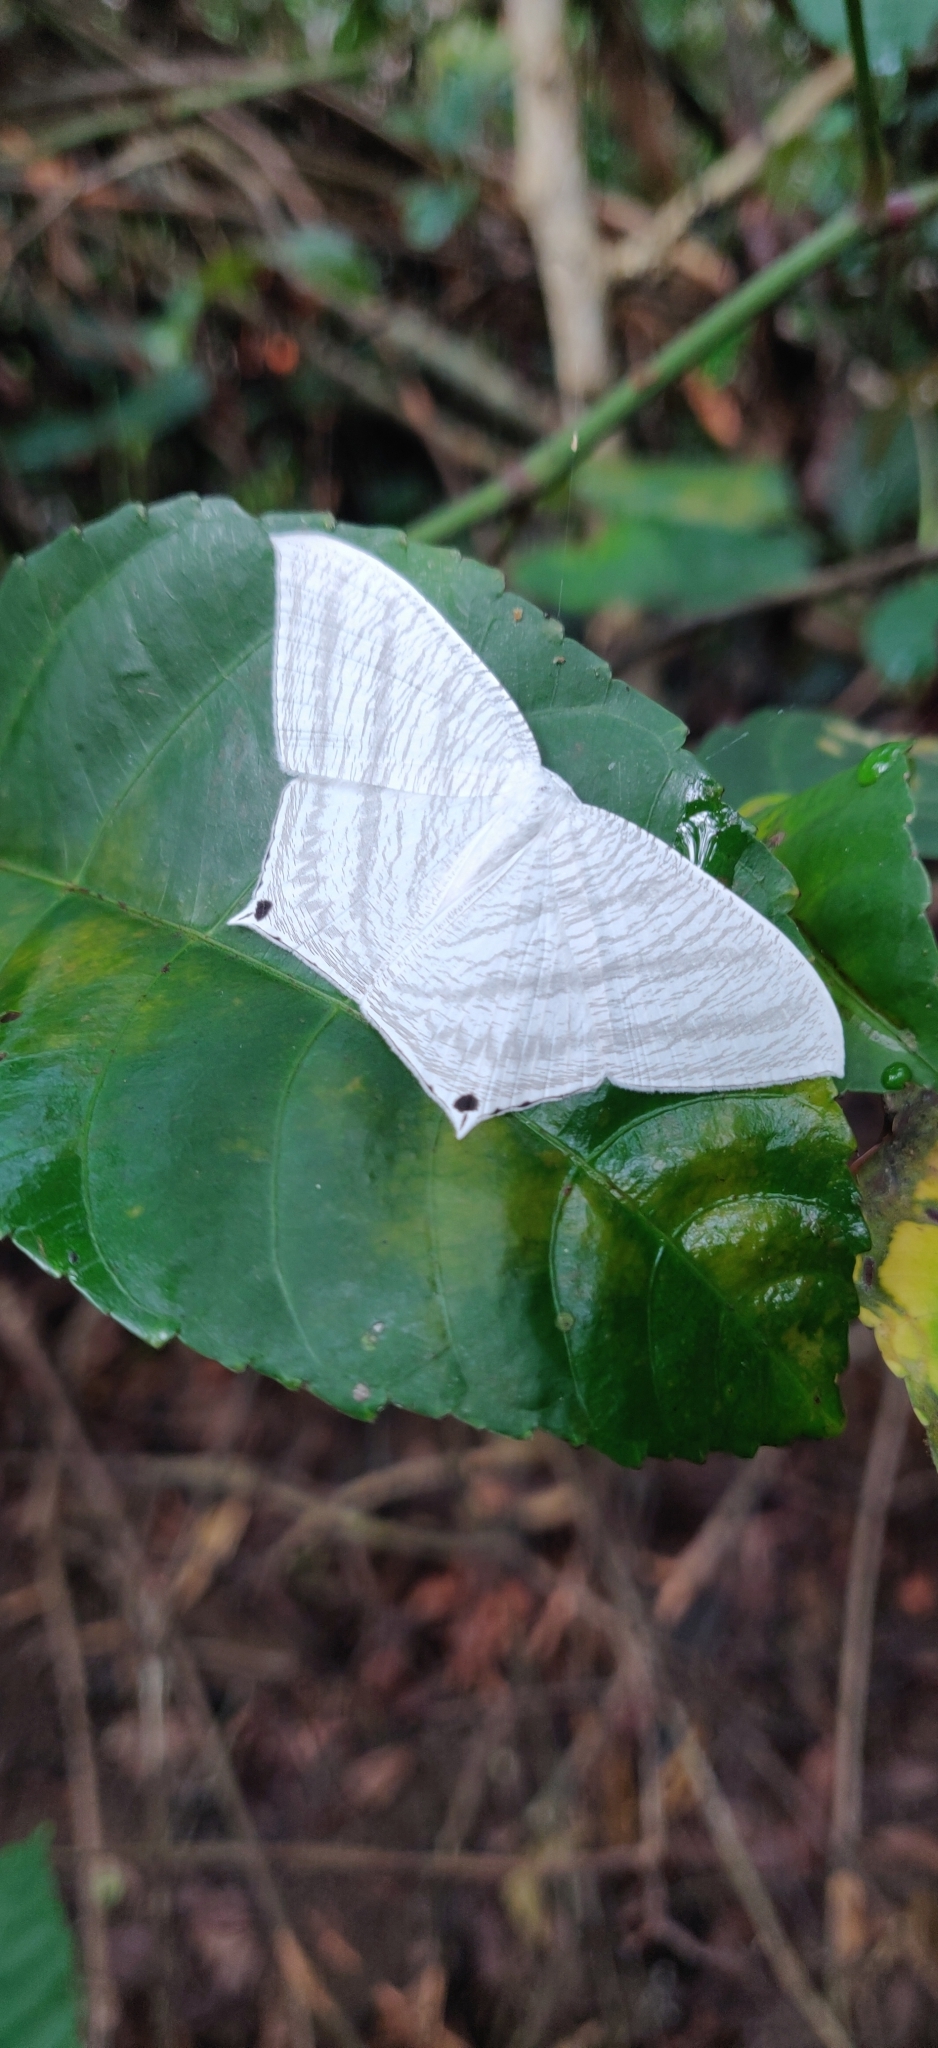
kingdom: Animalia
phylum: Arthropoda
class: Insecta
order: Lepidoptera
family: Uraniidae
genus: Micronia
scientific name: Micronia aculeata
